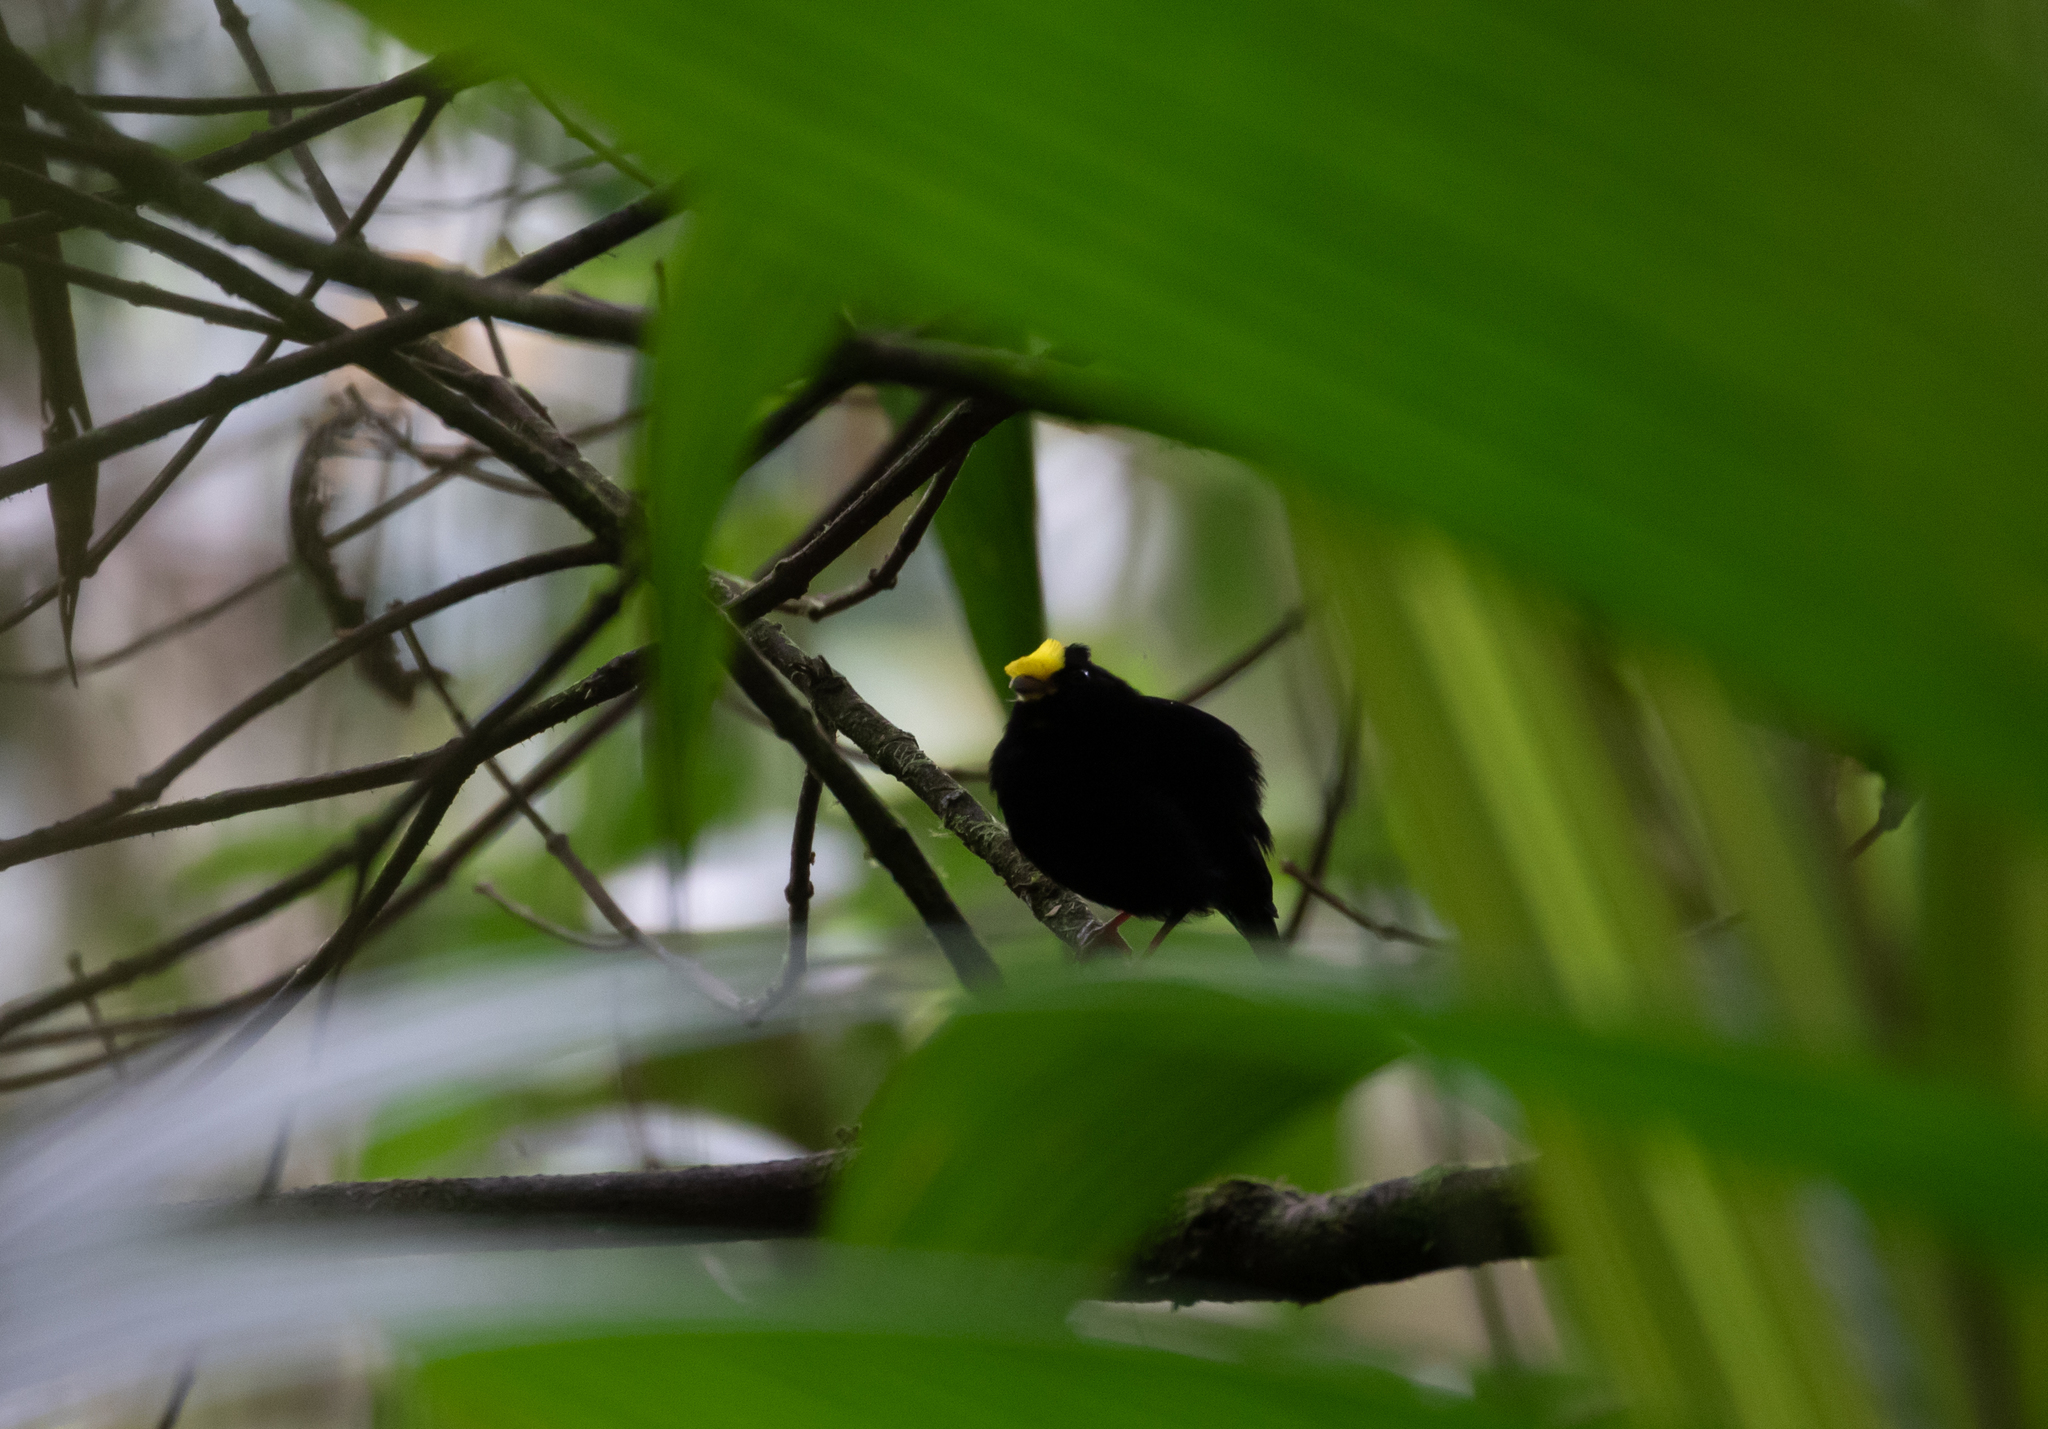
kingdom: Animalia
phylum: Chordata
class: Aves
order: Passeriformes
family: Pipridae
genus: Masius
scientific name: Masius chrysopterus
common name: Golden-winged manakin
